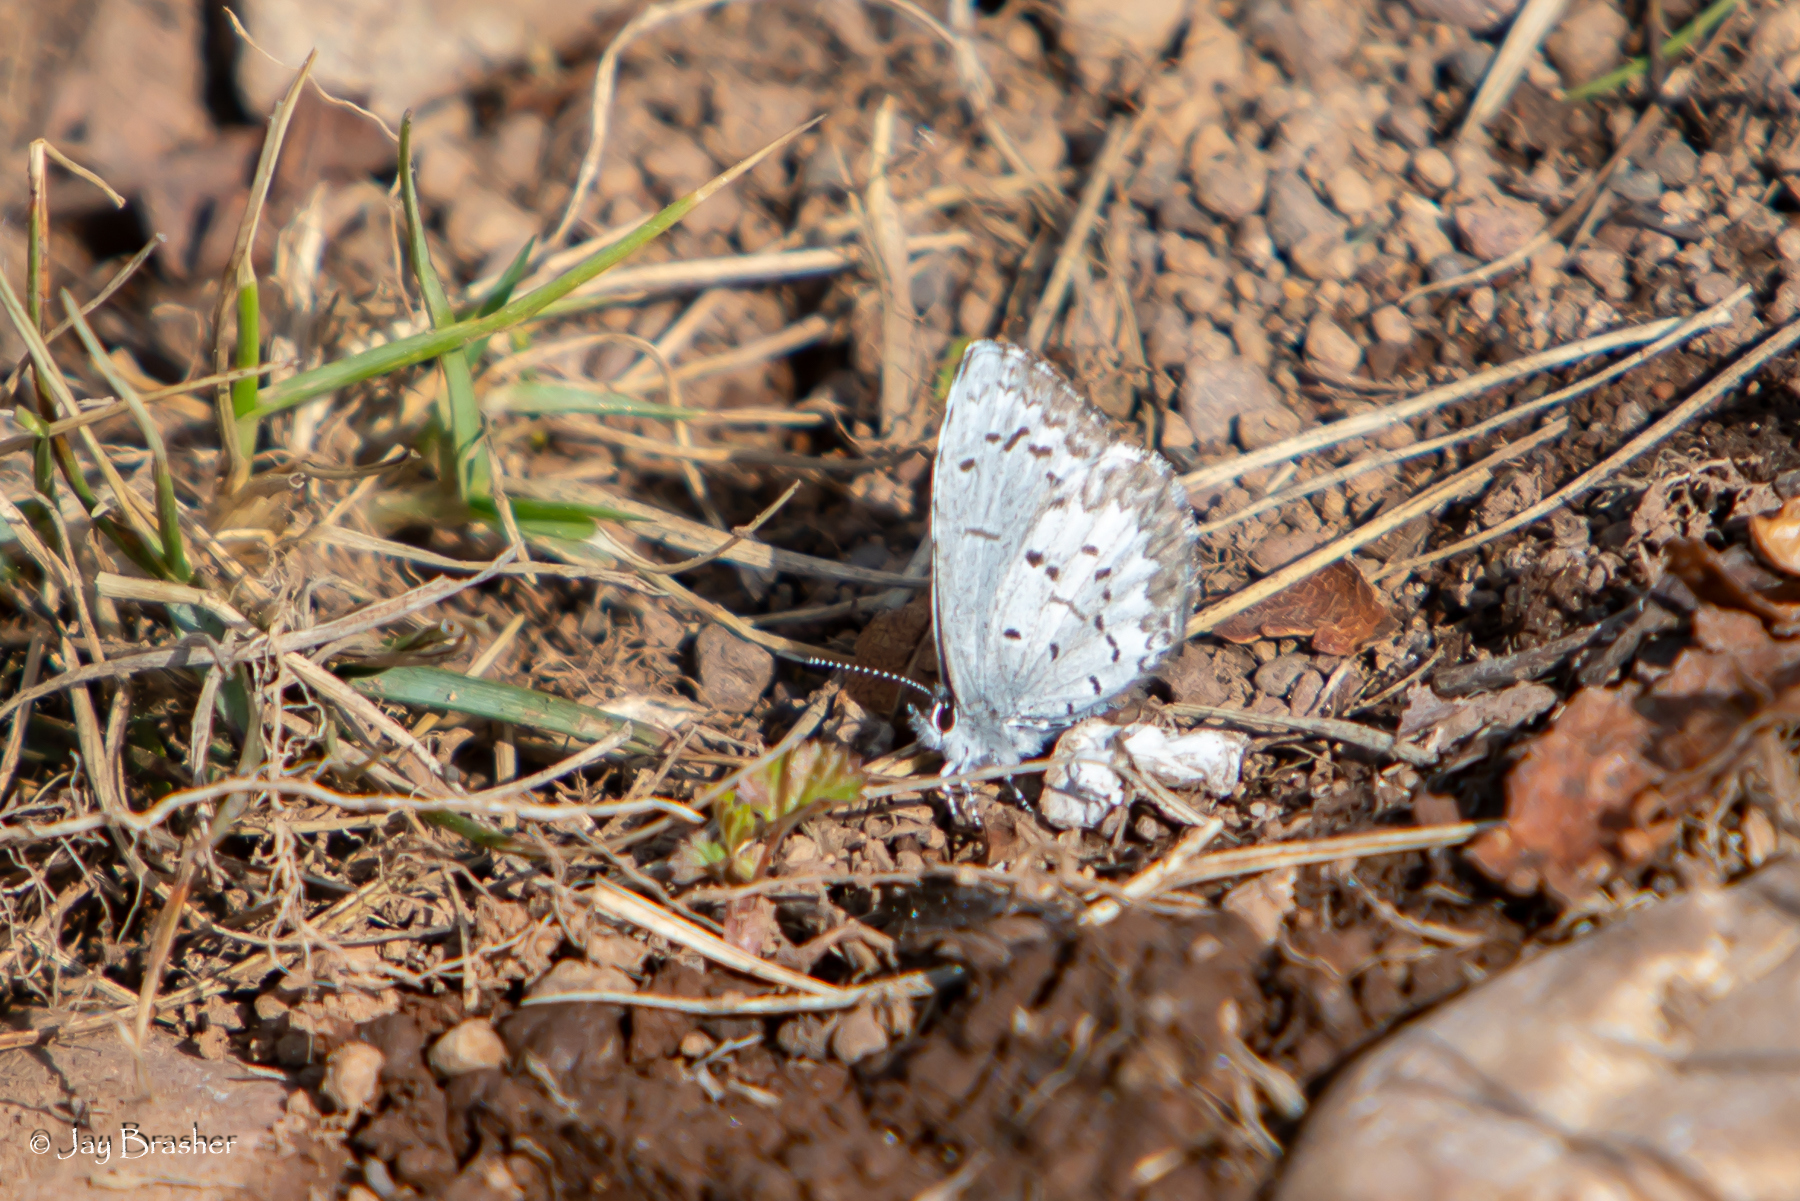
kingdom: Animalia
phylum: Arthropoda
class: Insecta
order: Lepidoptera
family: Lycaenidae
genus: Celastrina
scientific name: Celastrina lucia
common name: Lucia azure
